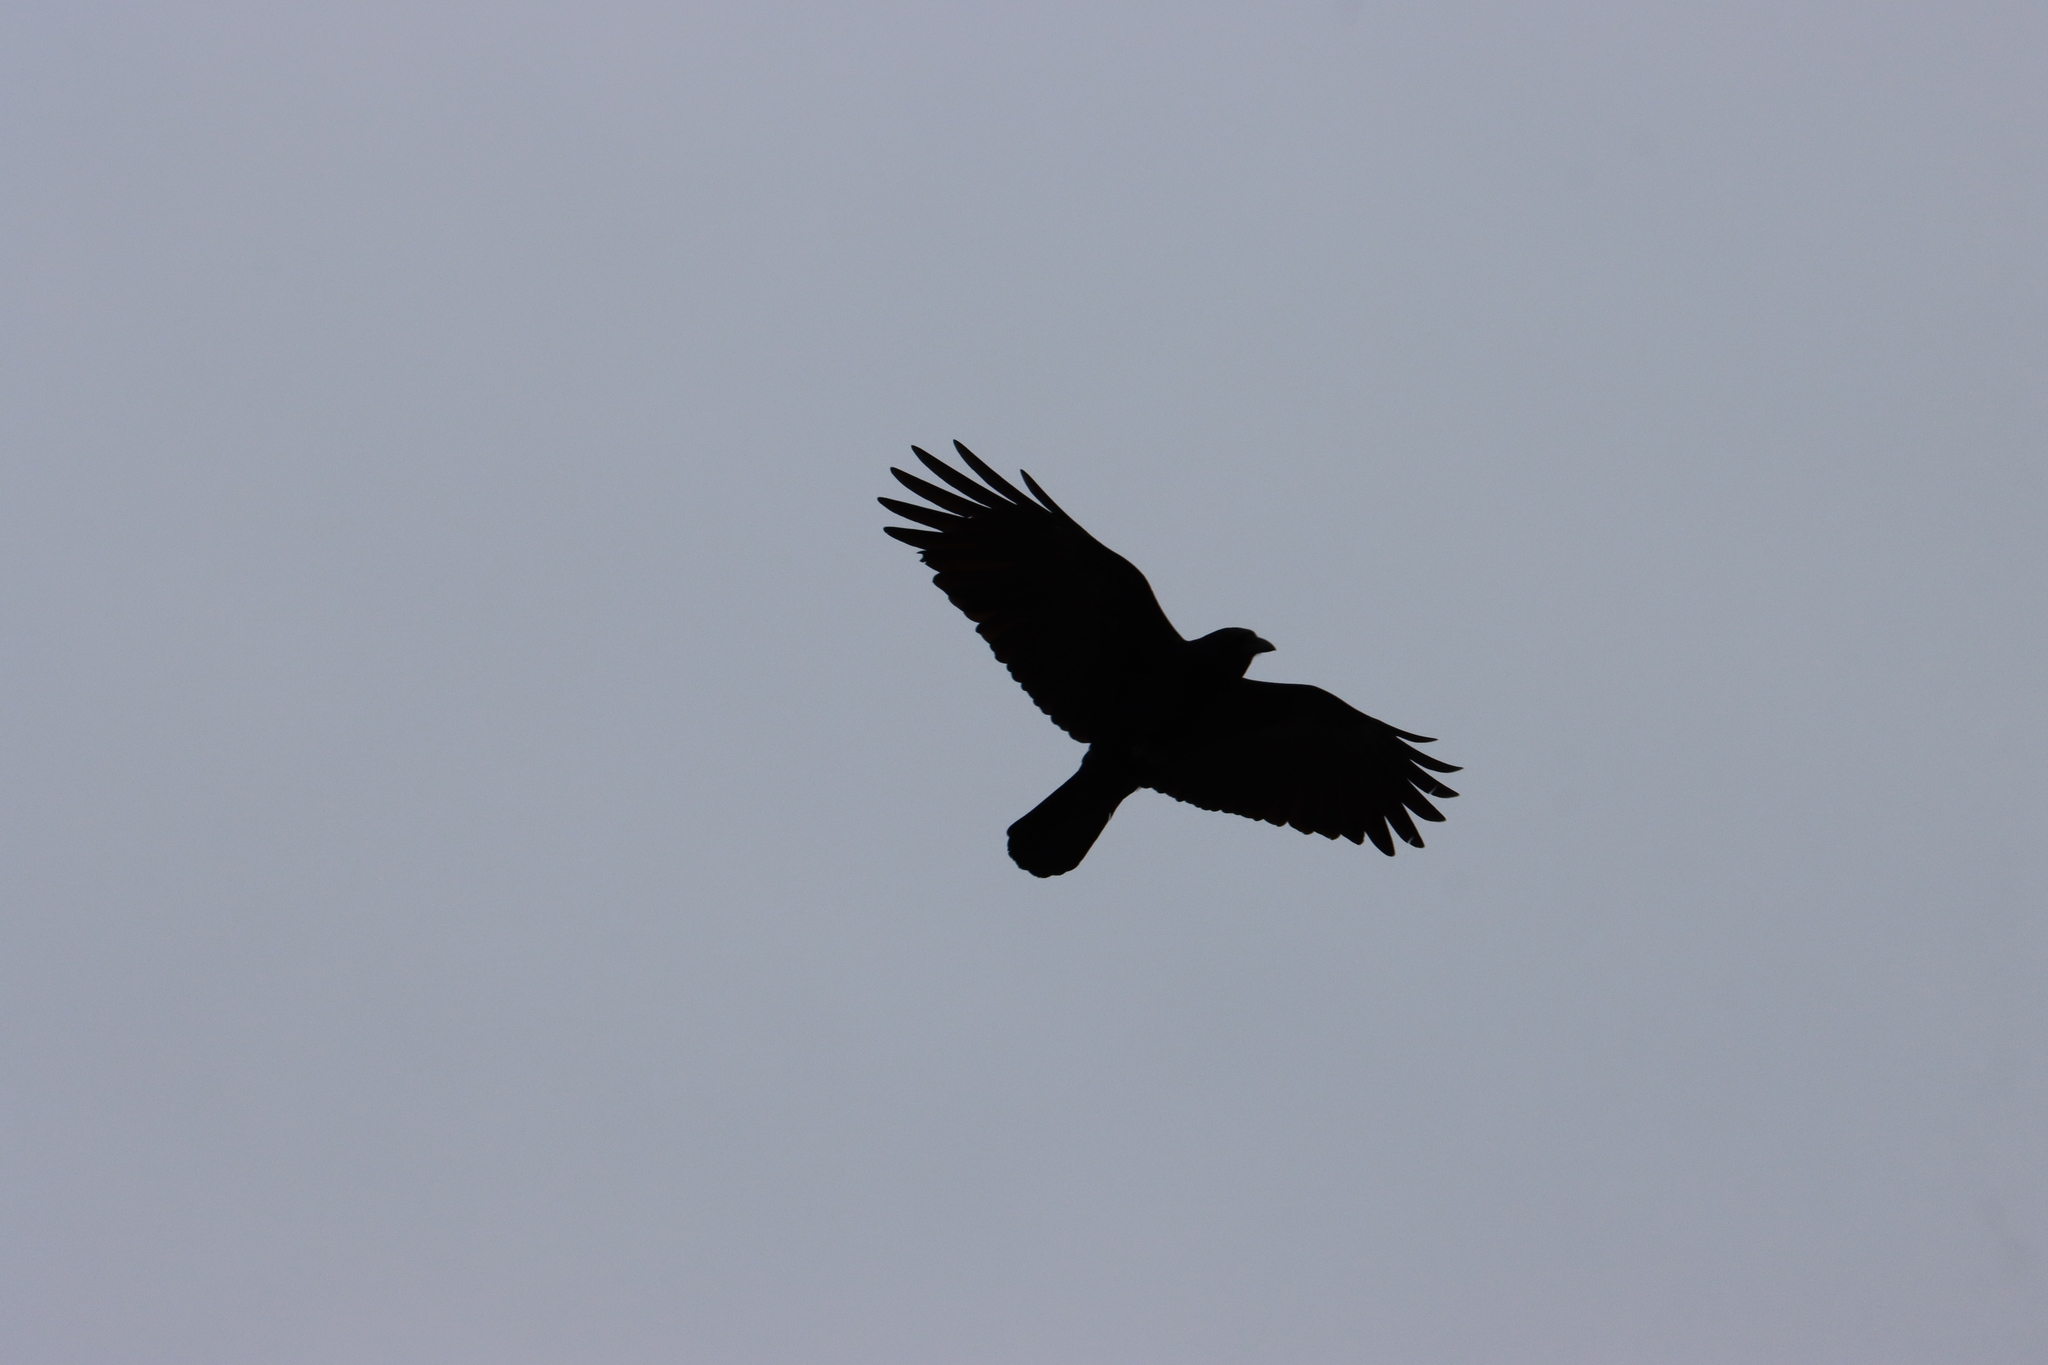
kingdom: Animalia
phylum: Chordata
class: Aves
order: Passeriformes
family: Corvidae
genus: Corvus
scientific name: Corvus brachyrhynchos
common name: American crow
